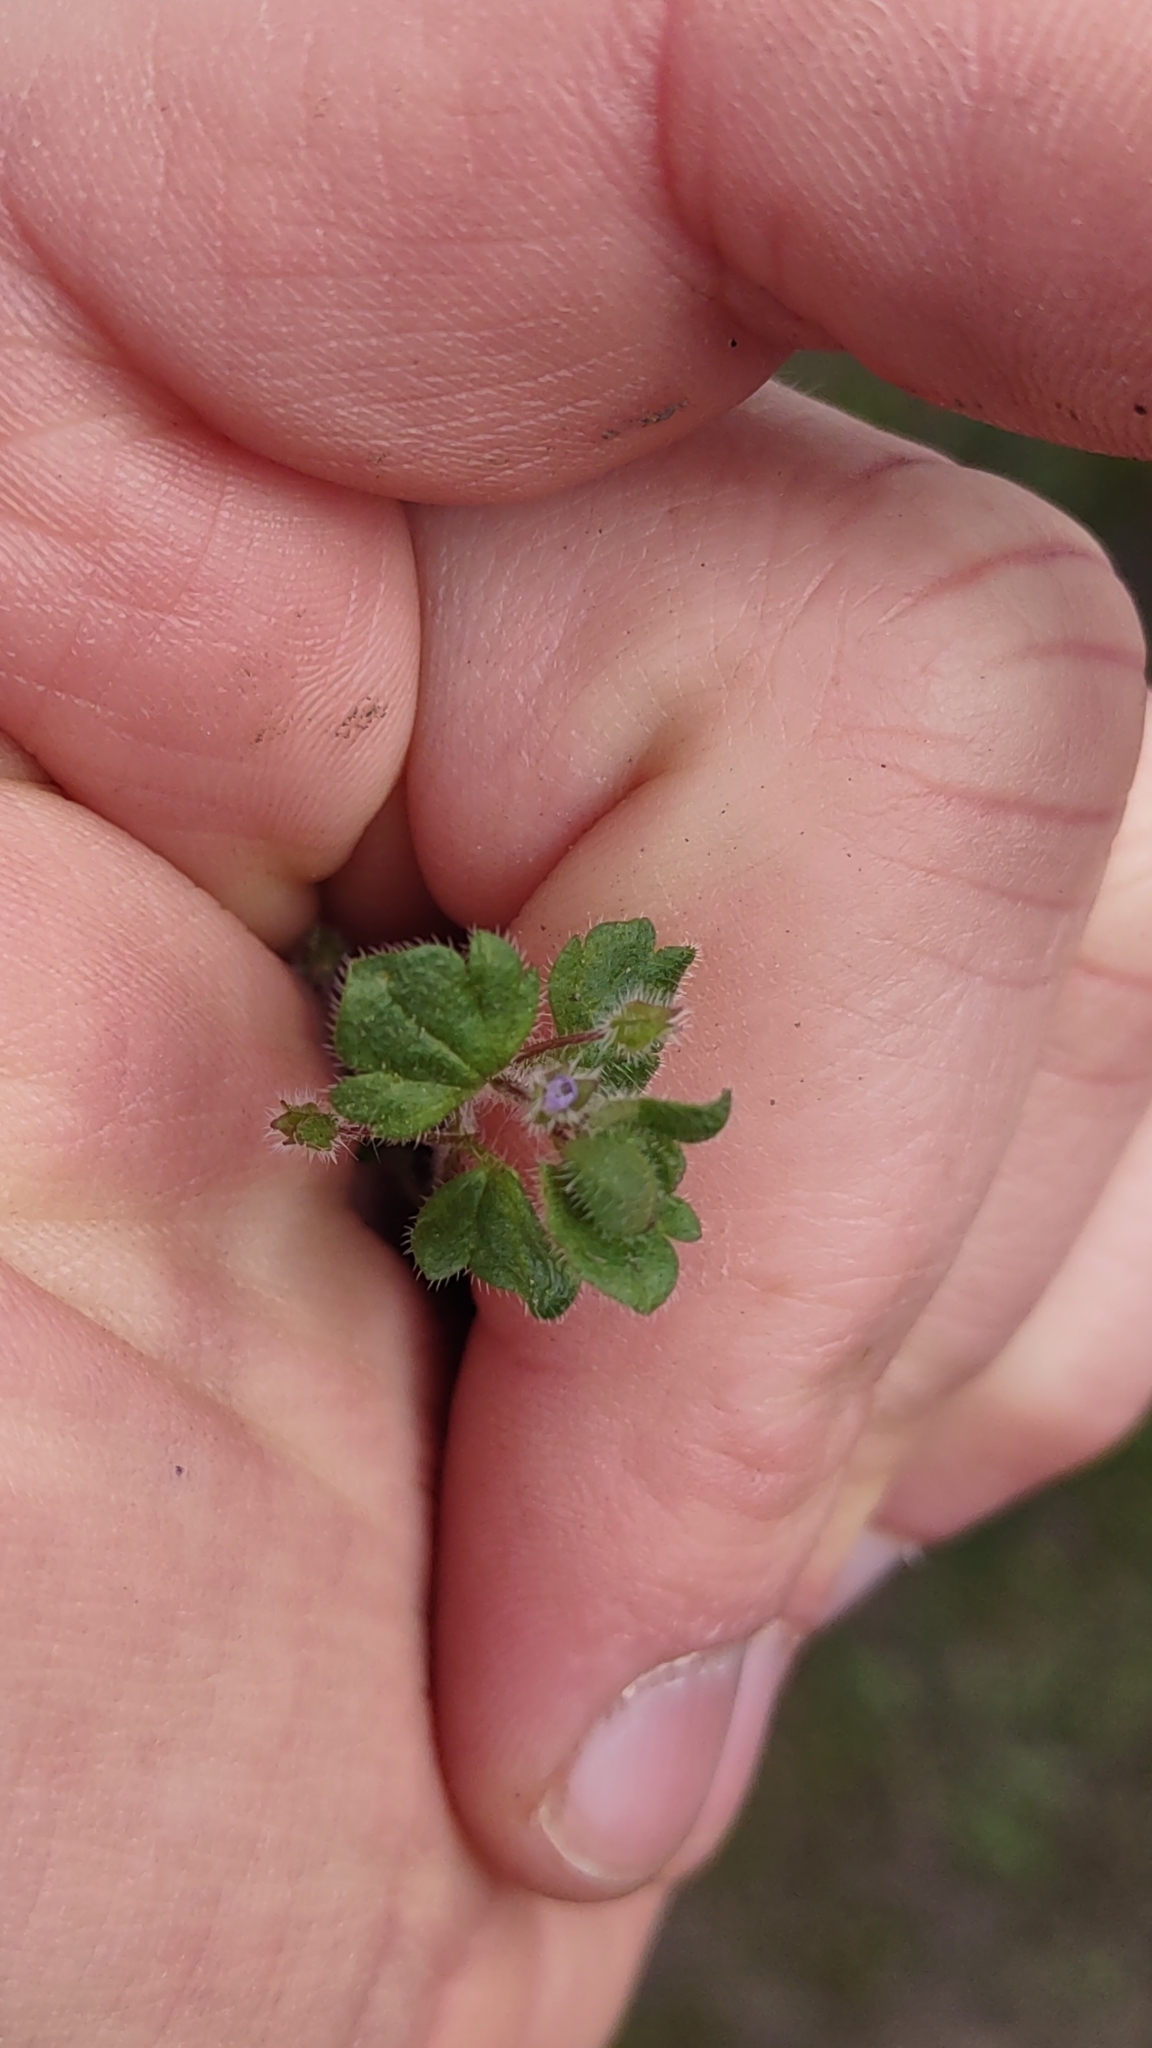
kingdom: Plantae
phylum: Tracheophyta
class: Magnoliopsida
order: Lamiales
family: Plantaginaceae
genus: Veronica
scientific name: Veronica sublobata
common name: False ivy-leaved speedwell
